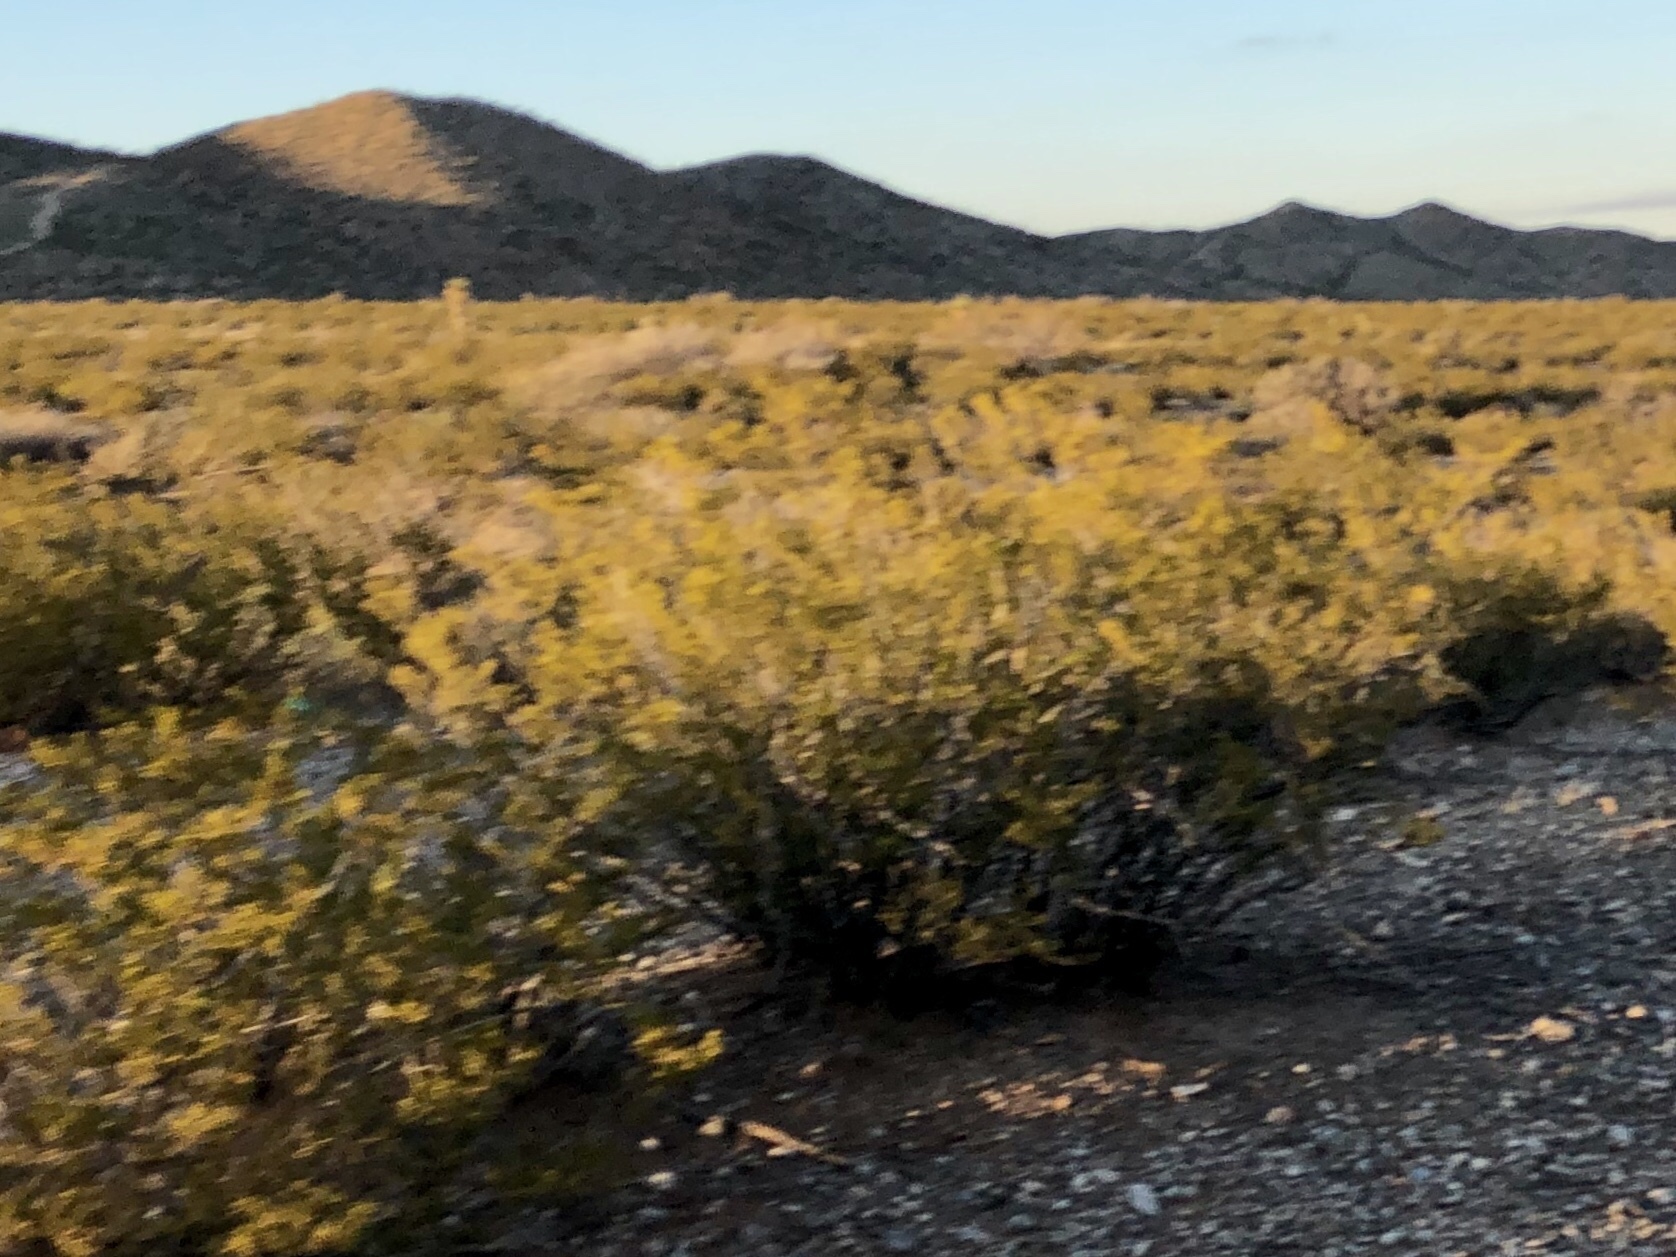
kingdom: Plantae
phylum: Tracheophyta
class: Magnoliopsida
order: Zygophyllales
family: Zygophyllaceae
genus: Larrea
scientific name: Larrea tridentata
